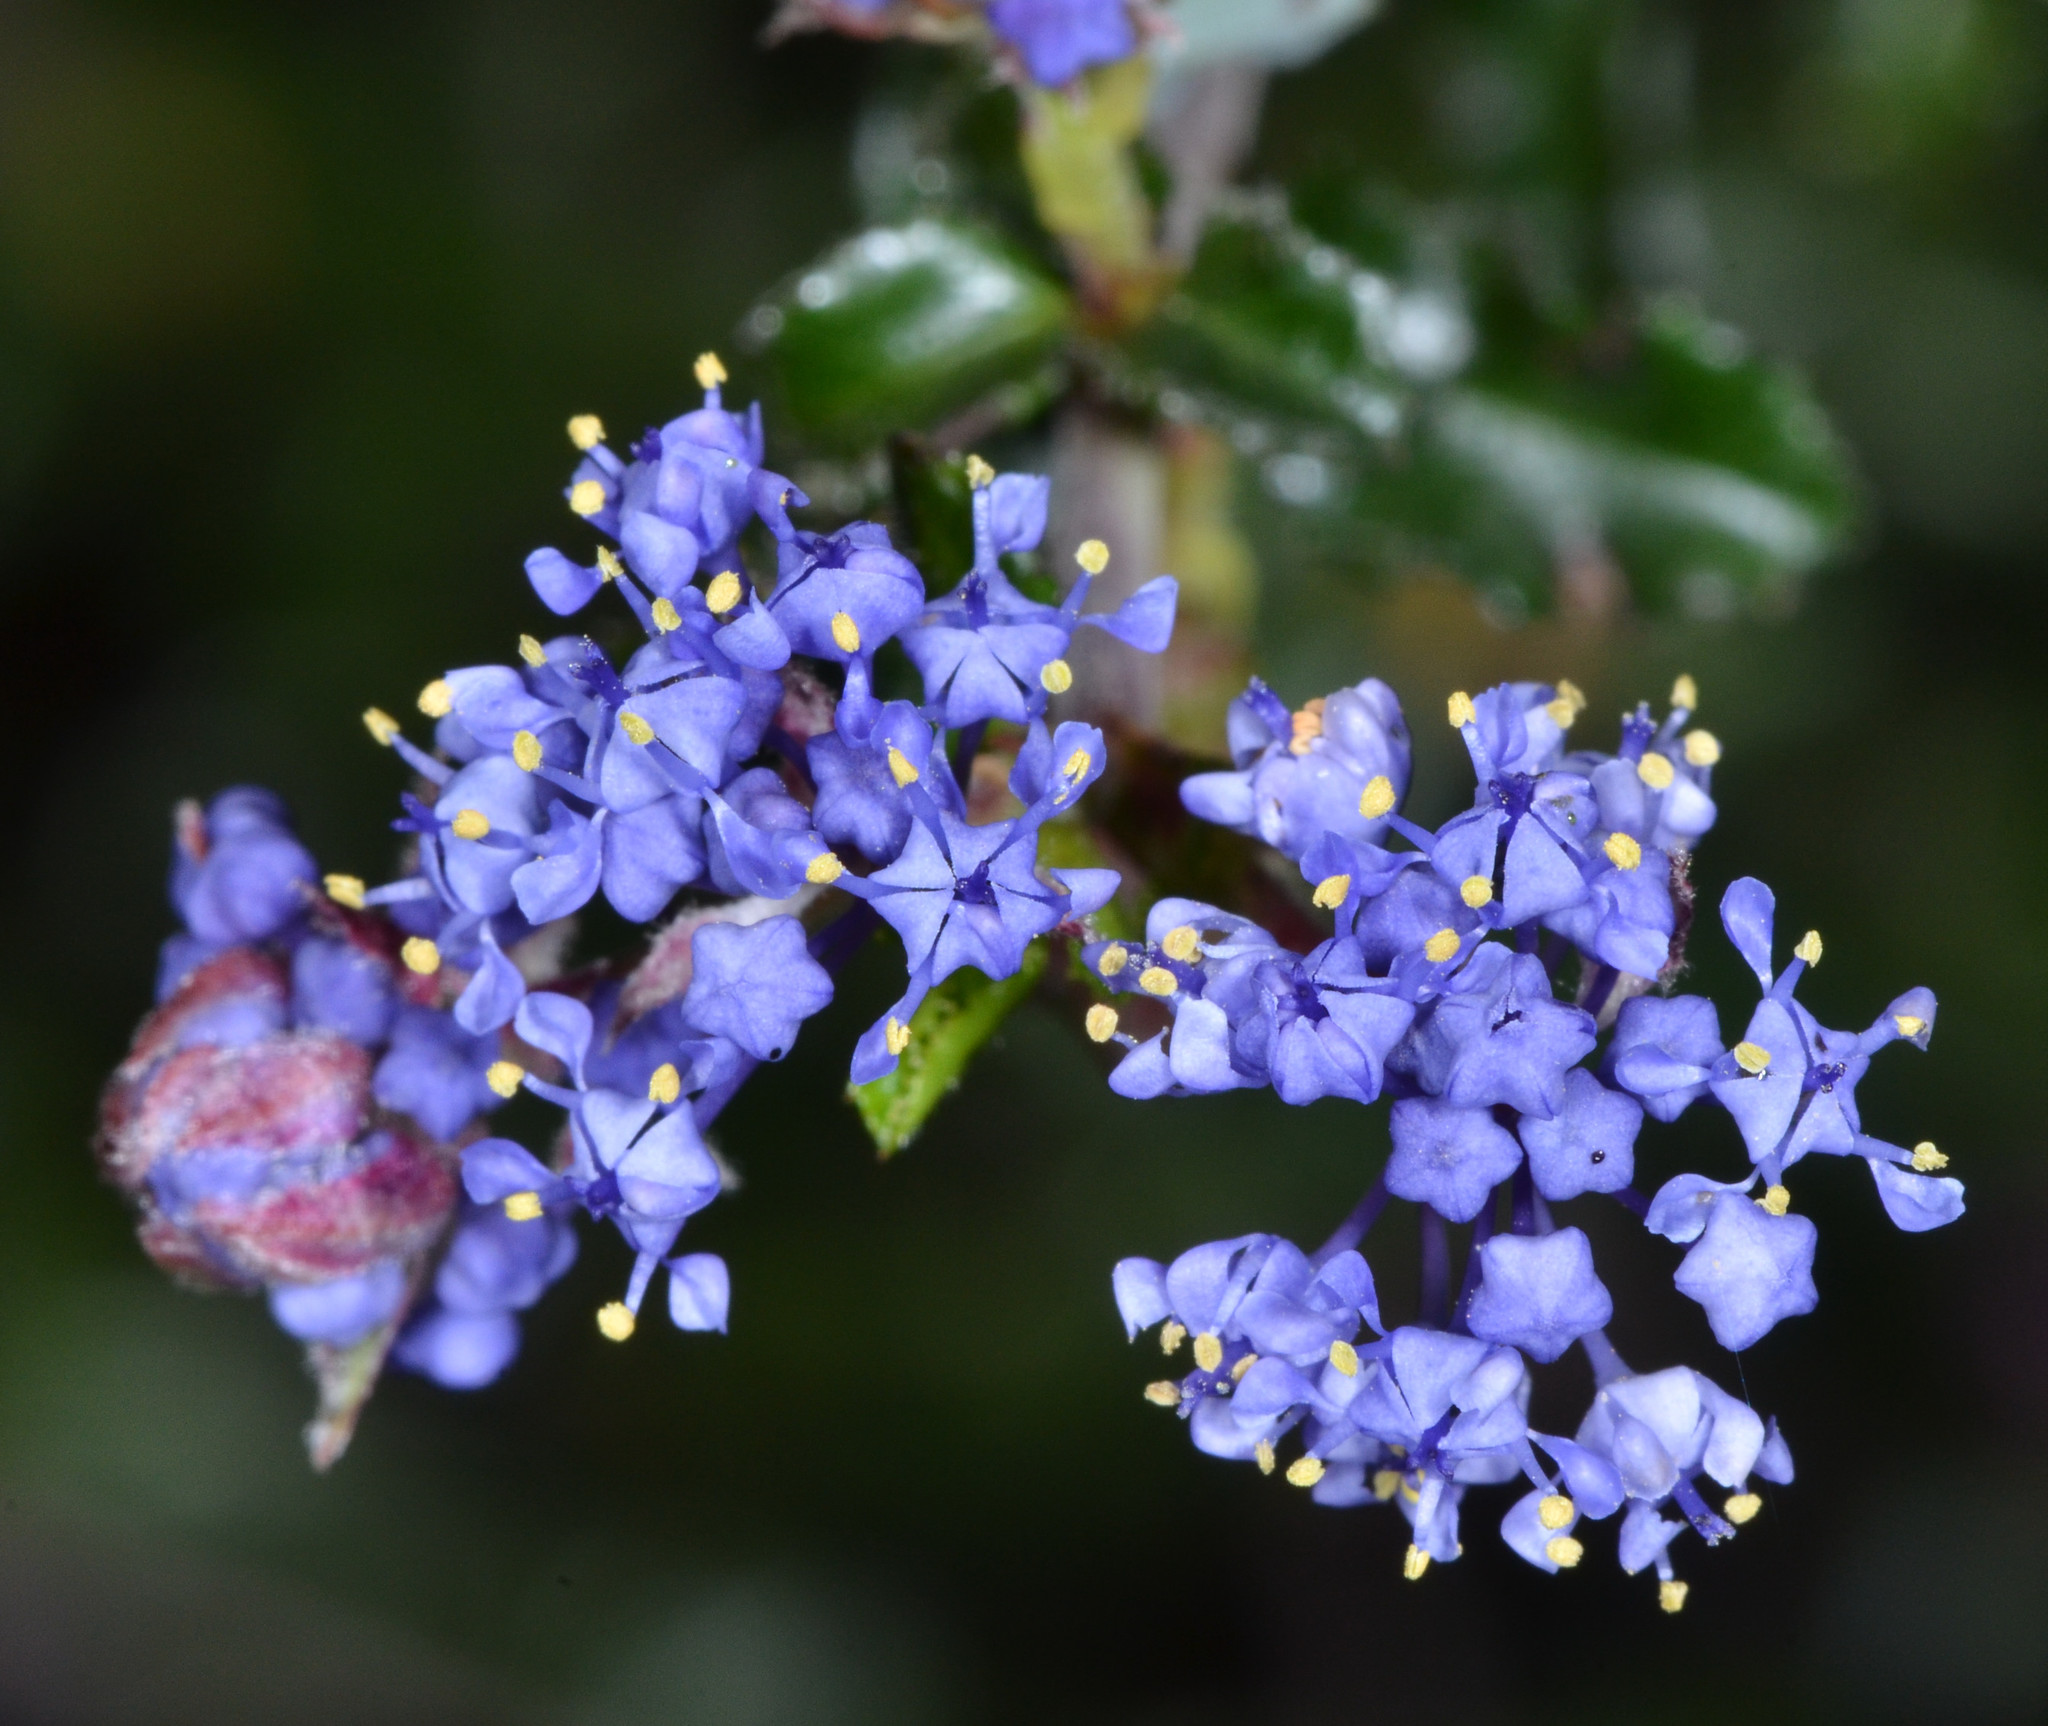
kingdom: Plantae
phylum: Tracheophyta
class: Magnoliopsida
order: Rosales
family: Rhamnaceae
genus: Ceanothus
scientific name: Ceanothus foliosus
